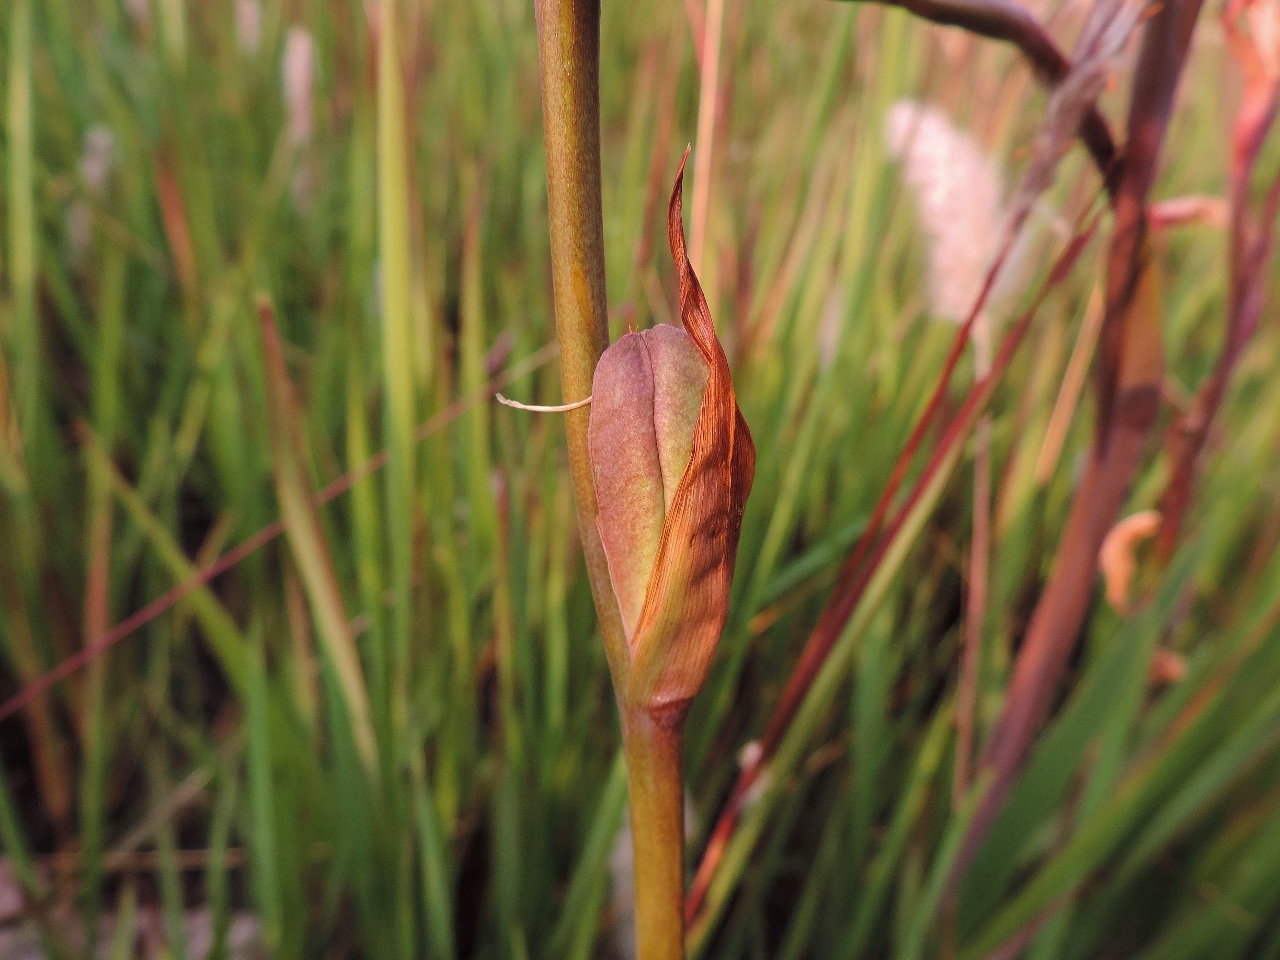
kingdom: Plantae
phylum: Tracheophyta
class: Liliopsida
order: Asparagales
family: Iridaceae
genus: Gladiolus
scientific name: Gladiolus melleri
